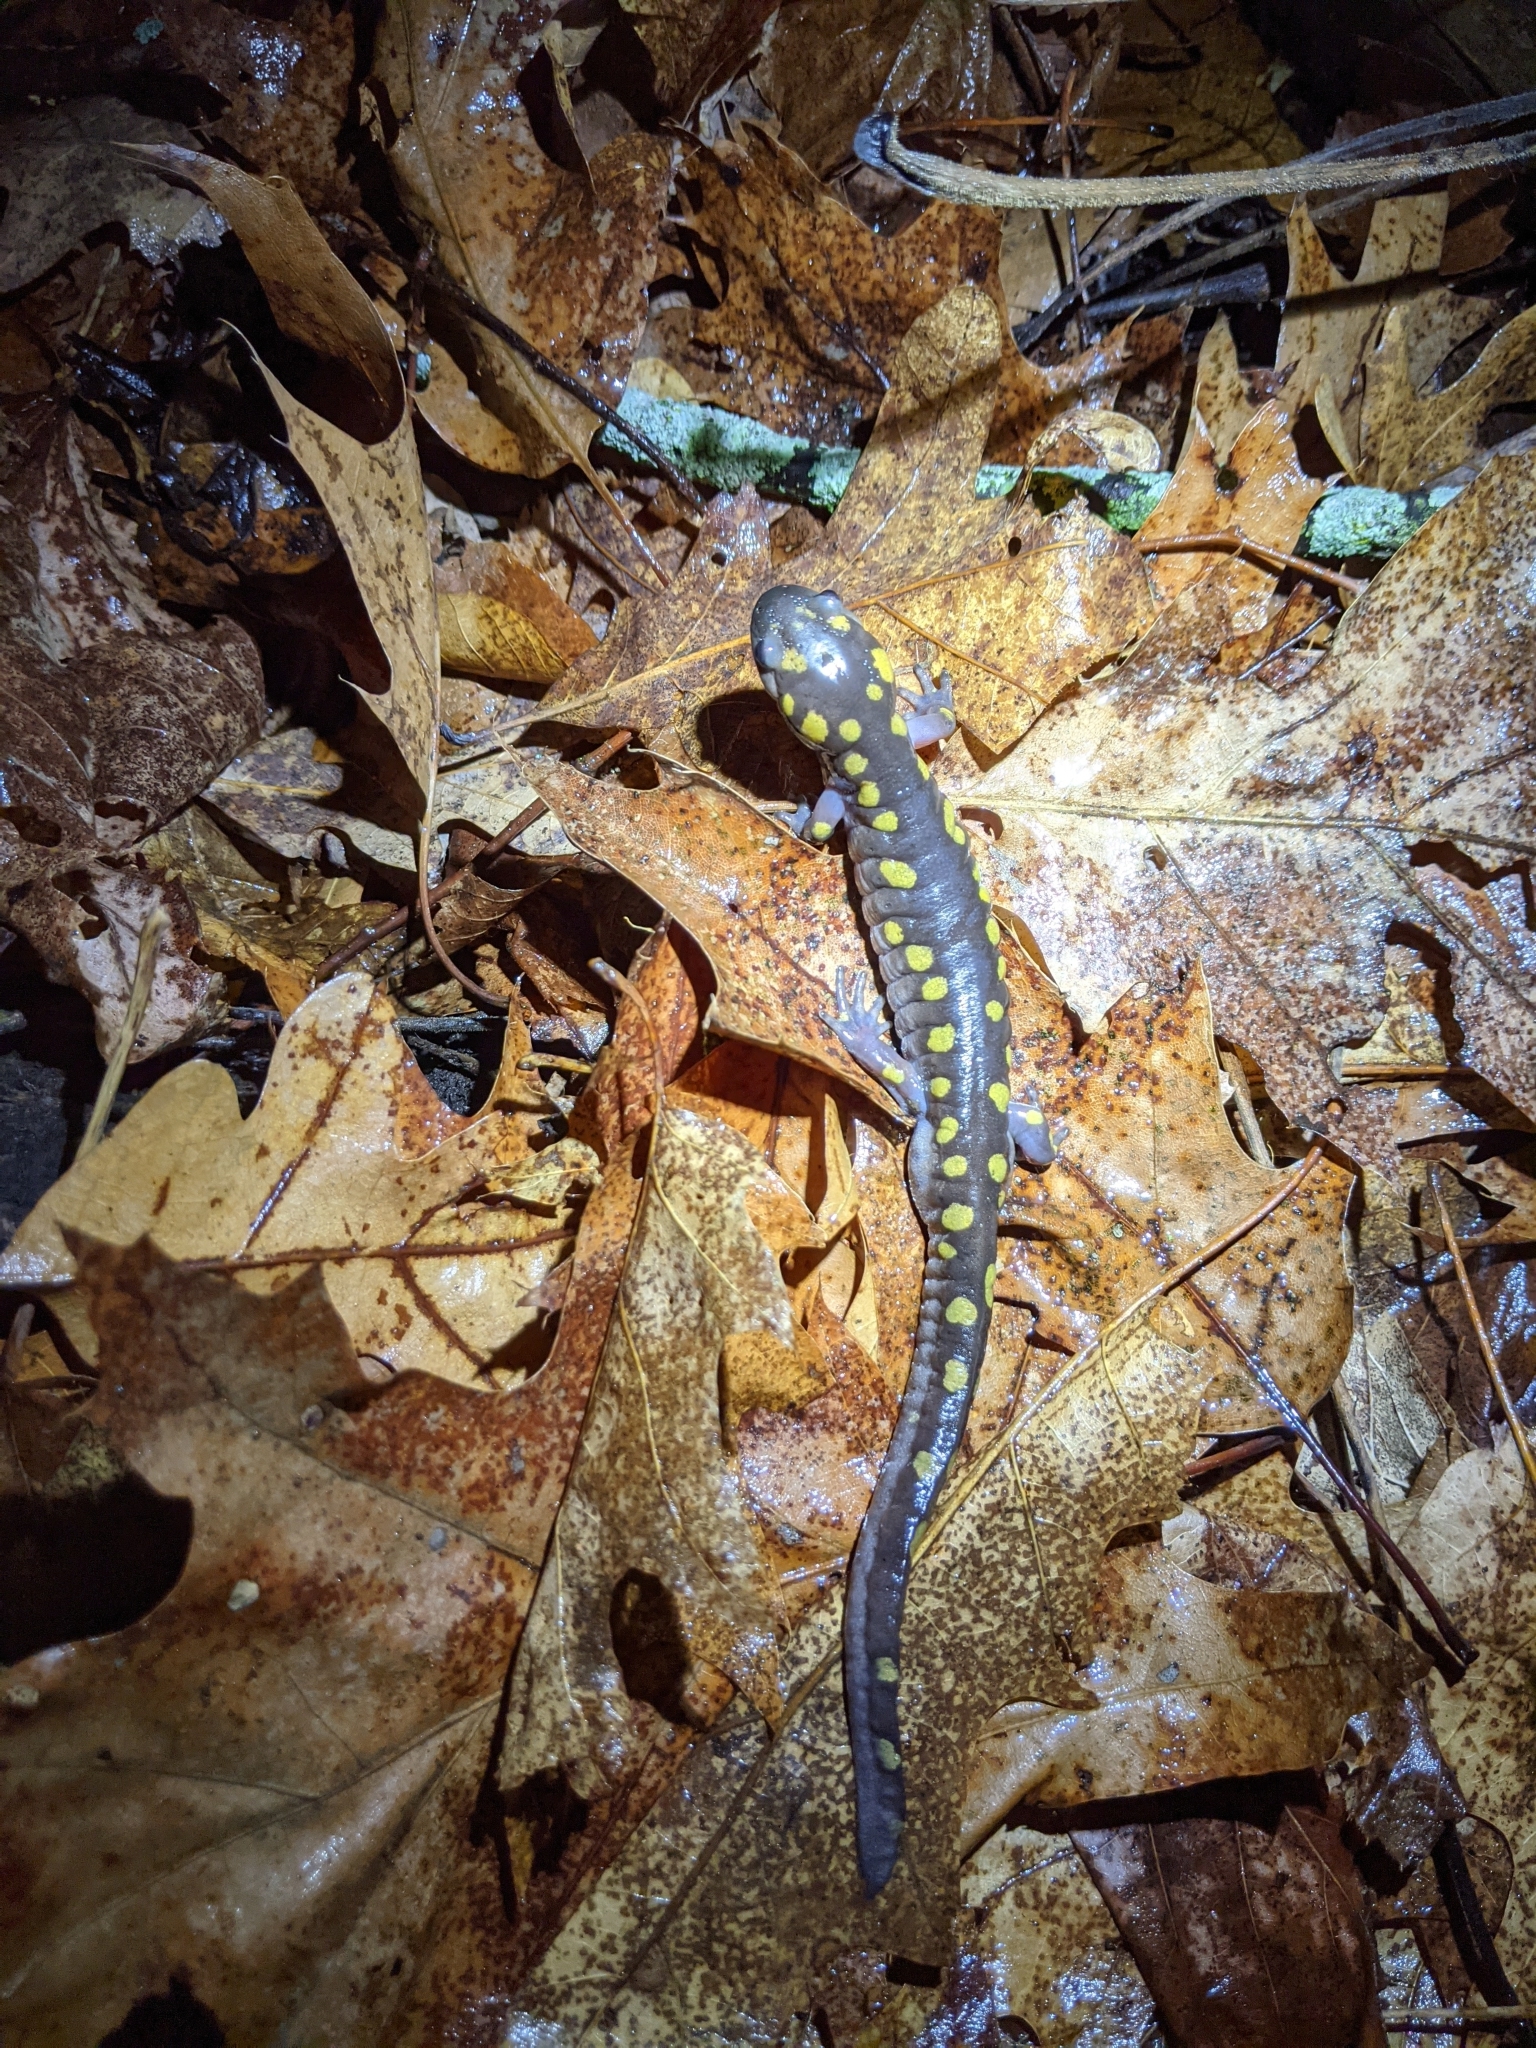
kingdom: Animalia
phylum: Chordata
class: Amphibia
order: Caudata
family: Ambystomatidae
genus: Ambystoma
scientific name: Ambystoma maculatum
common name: Spotted salamander
